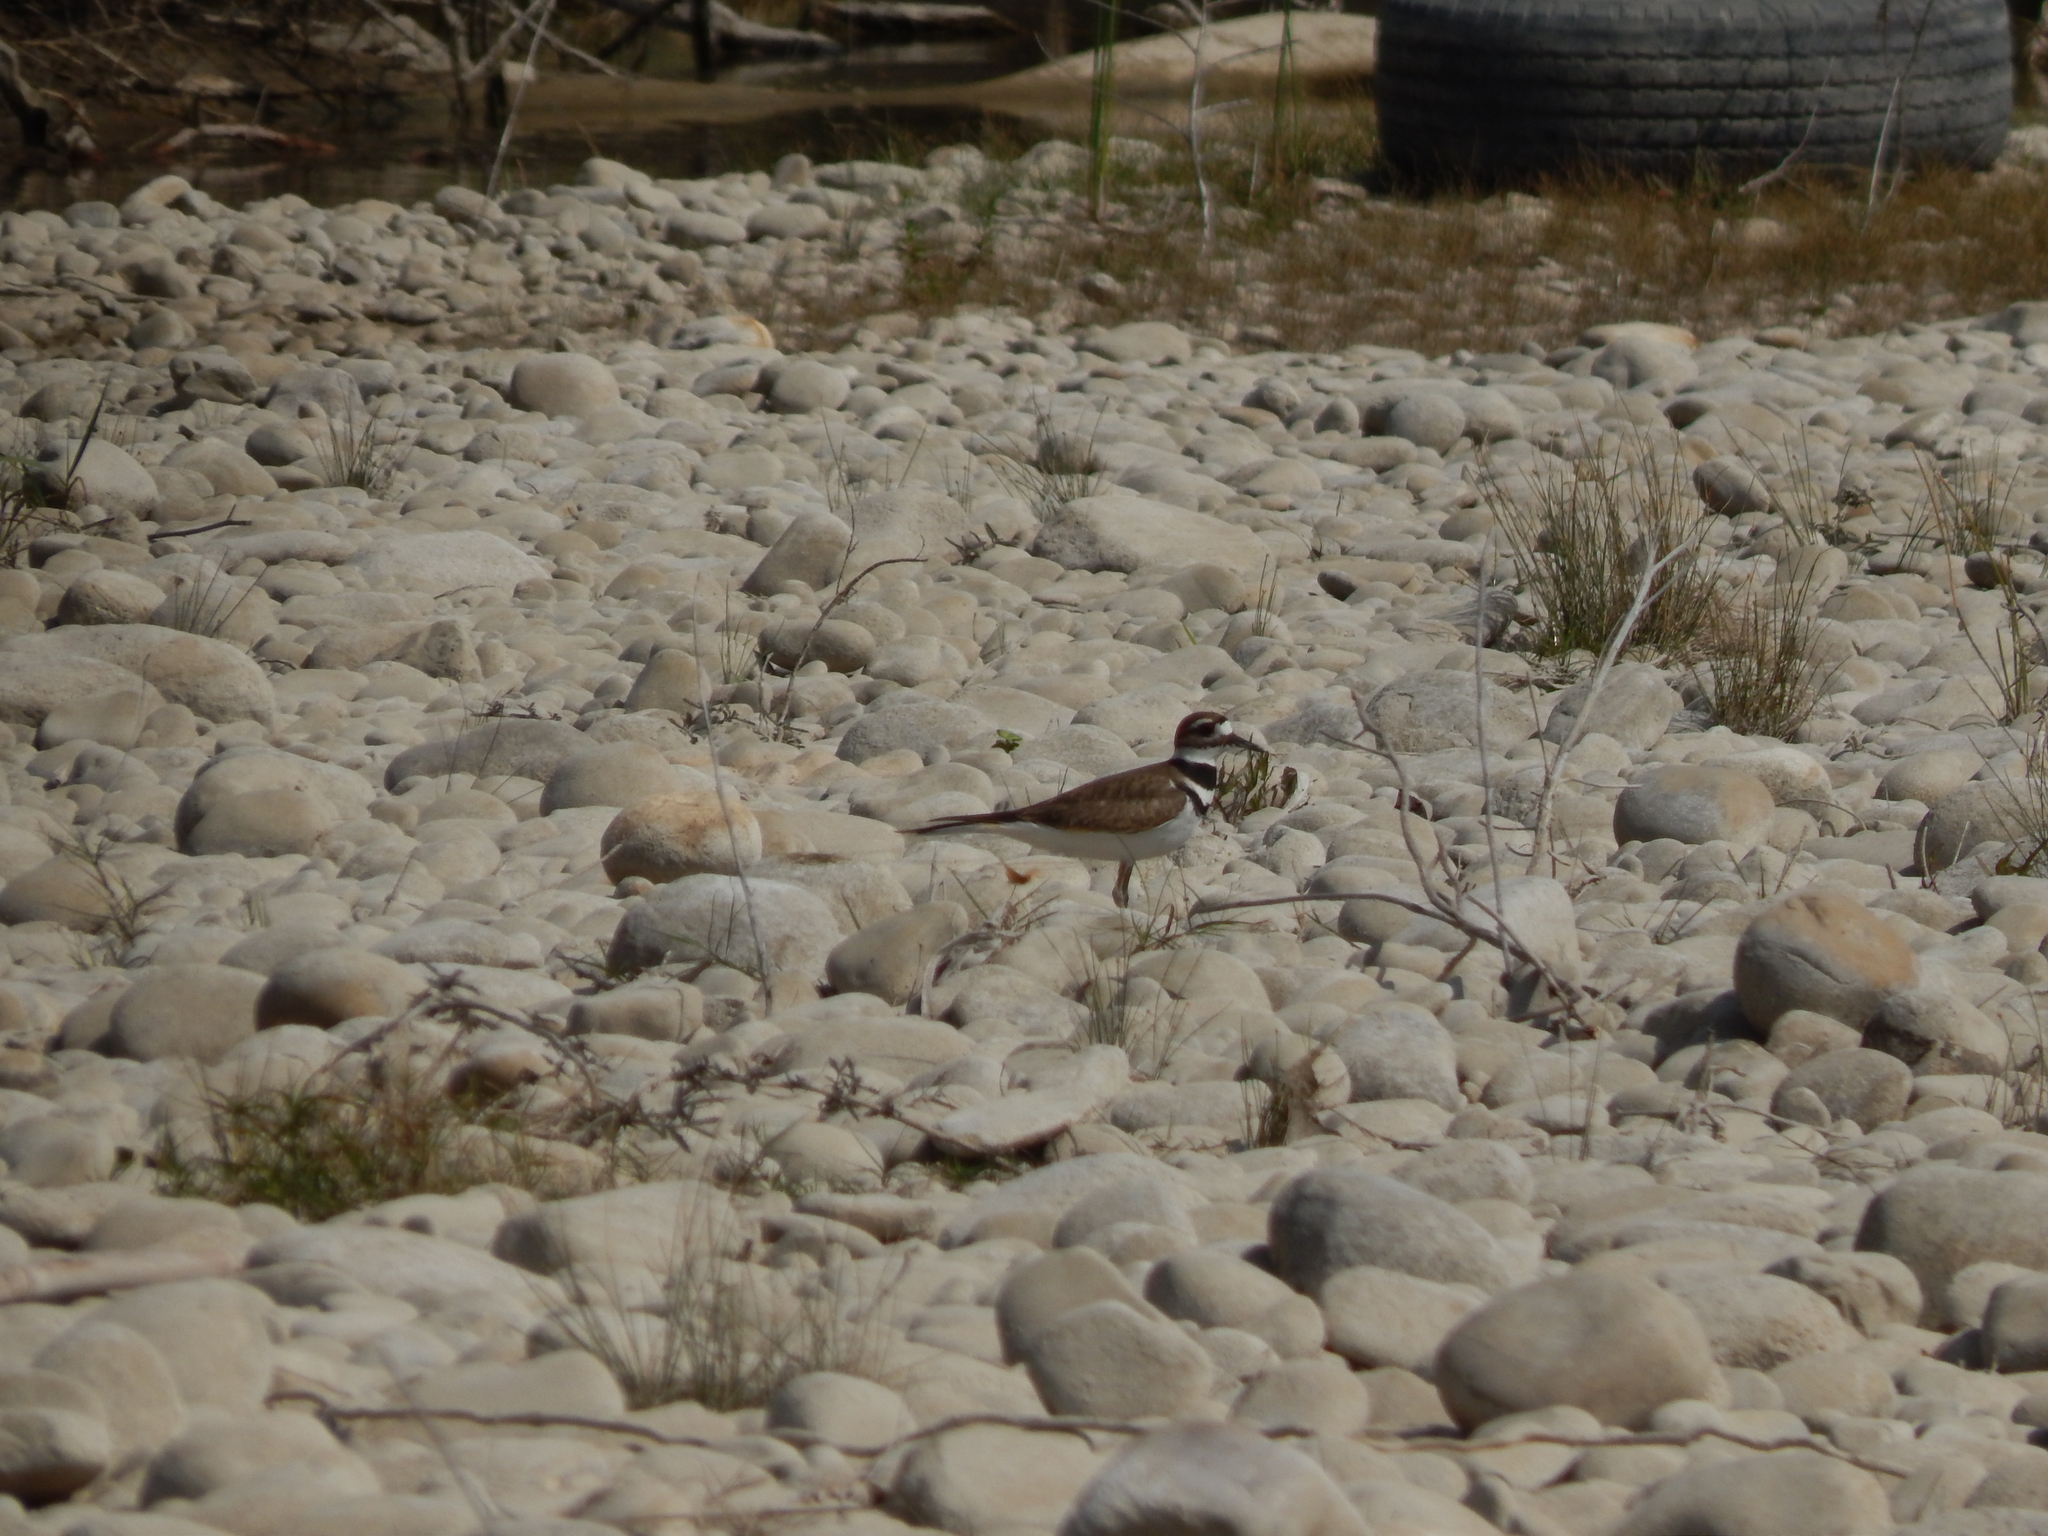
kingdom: Animalia
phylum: Chordata
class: Aves
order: Charadriiformes
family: Charadriidae
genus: Charadrius
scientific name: Charadrius vociferus
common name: Killdeer
